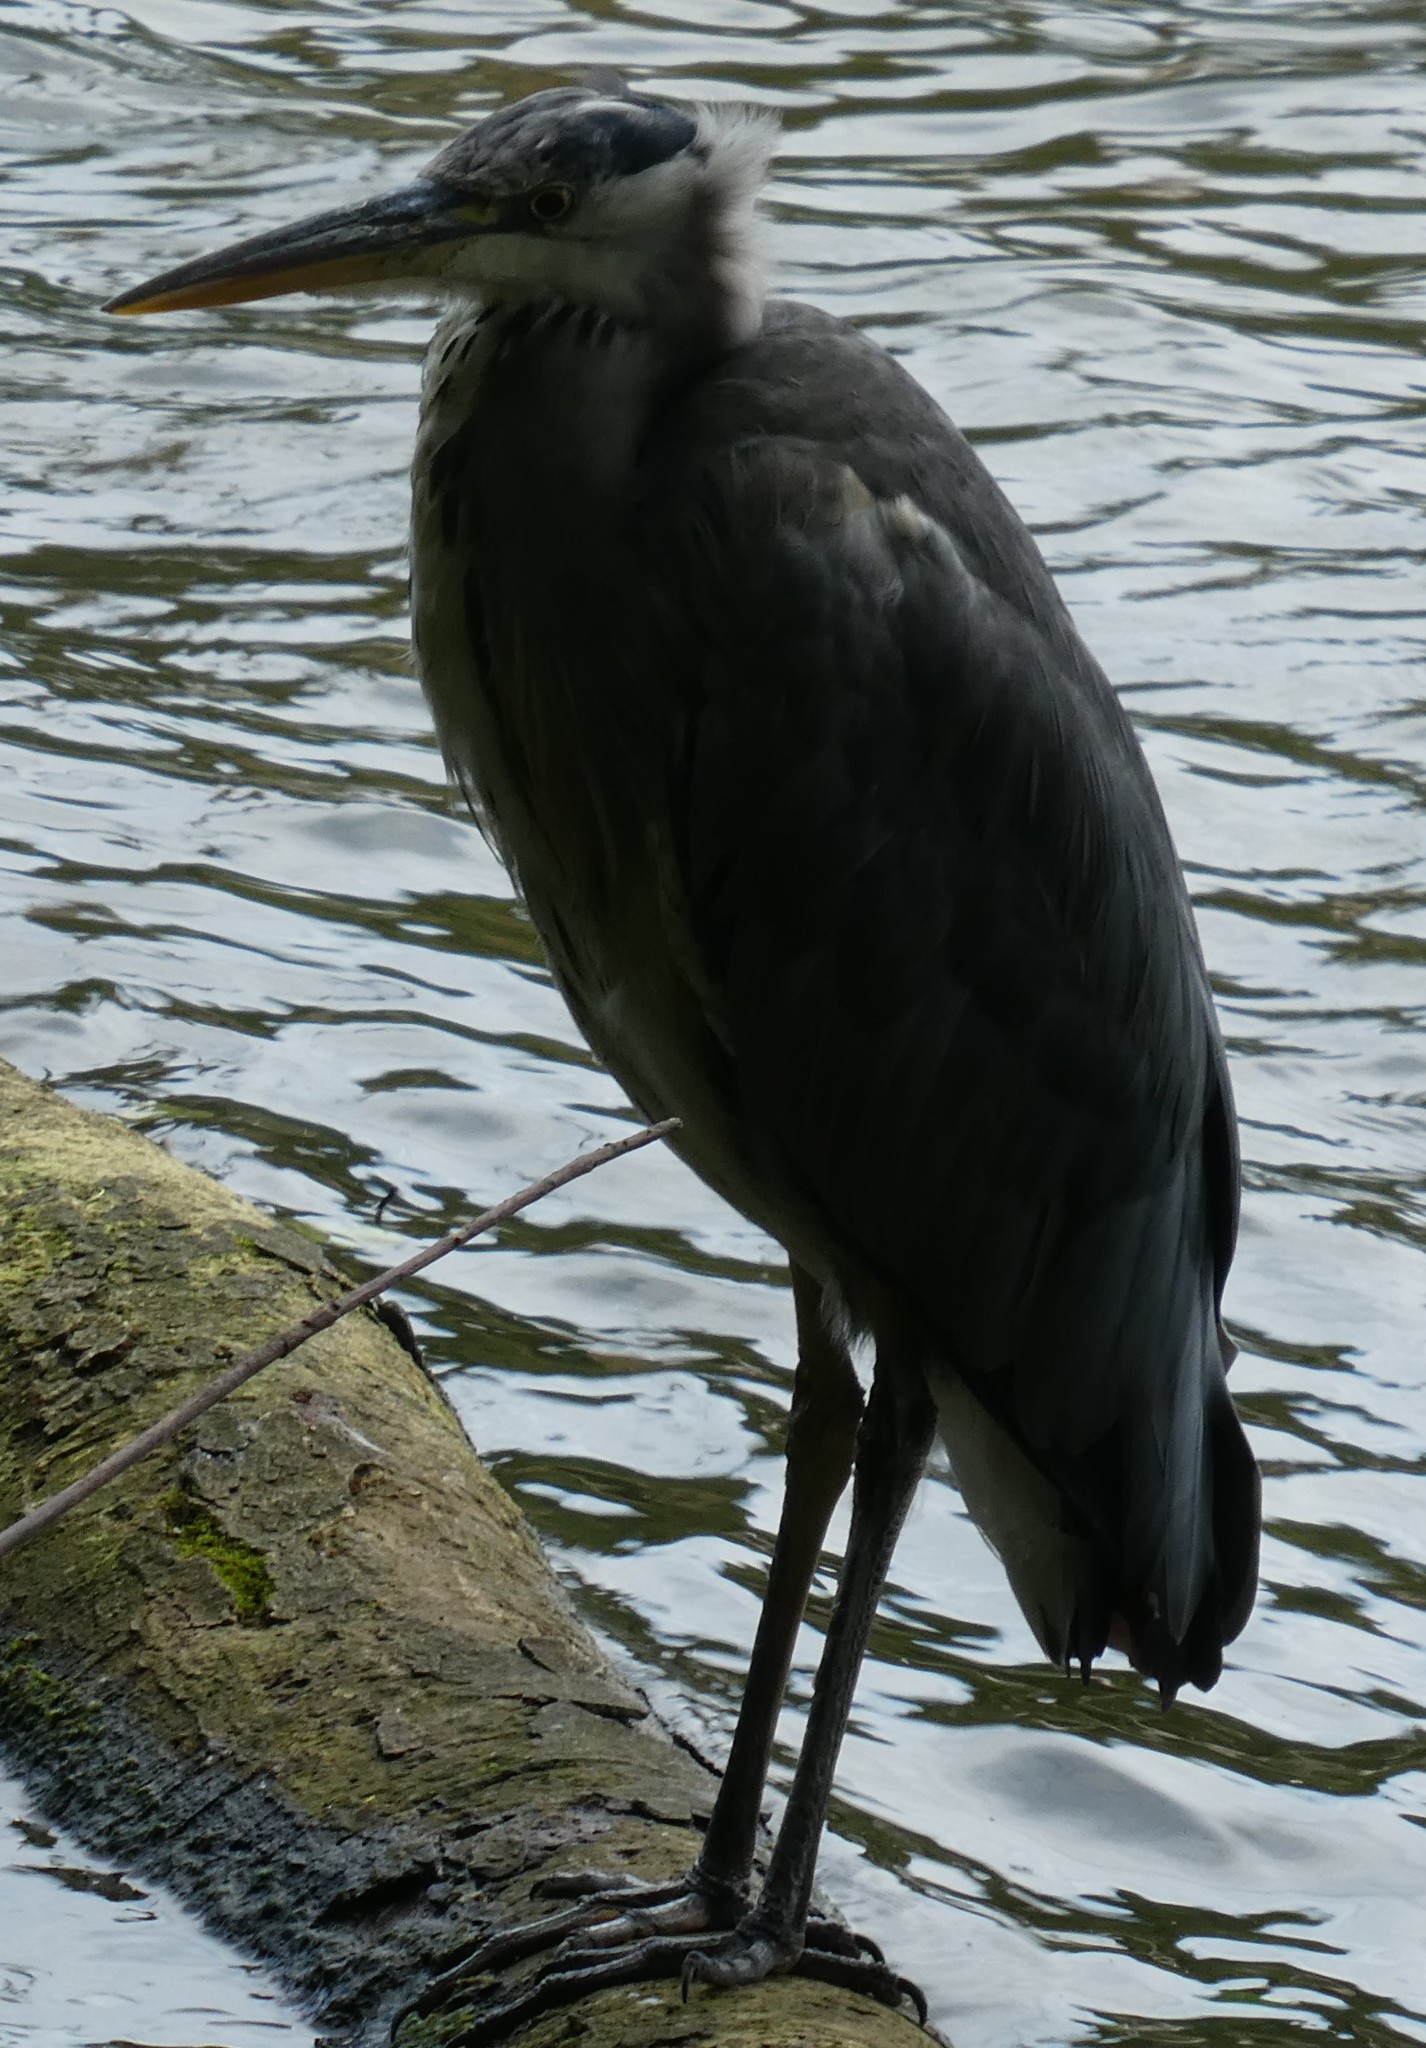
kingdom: Animalia
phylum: Chordata
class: Aves
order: Pelecaniformes
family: Ardeidae
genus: Ardea
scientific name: Ardea cinerea
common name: Grey heron
